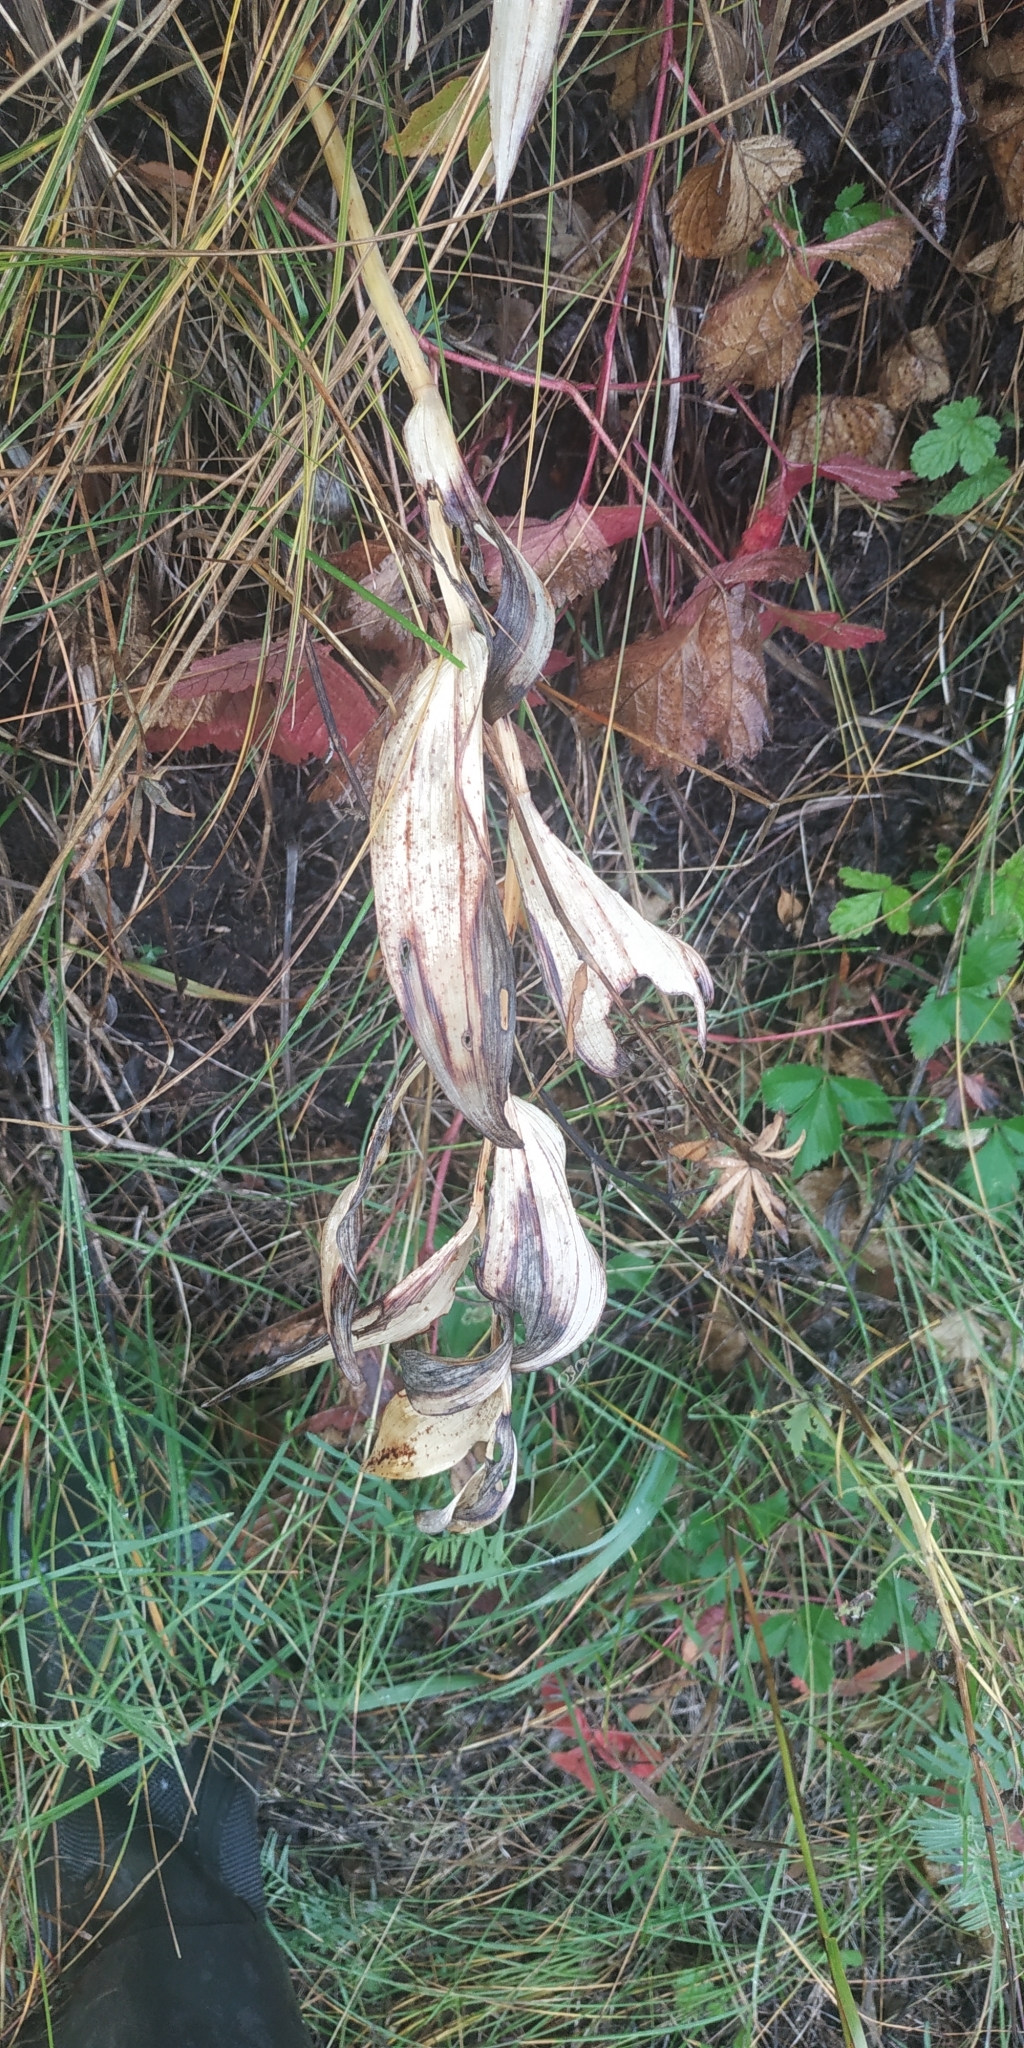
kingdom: Plantae
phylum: Tracheophyta
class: Liliopsida
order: Asparagales
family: Asparagaceae
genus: Polygonatum
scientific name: Polygonatum odoratum
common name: Angular solomon's-seal
